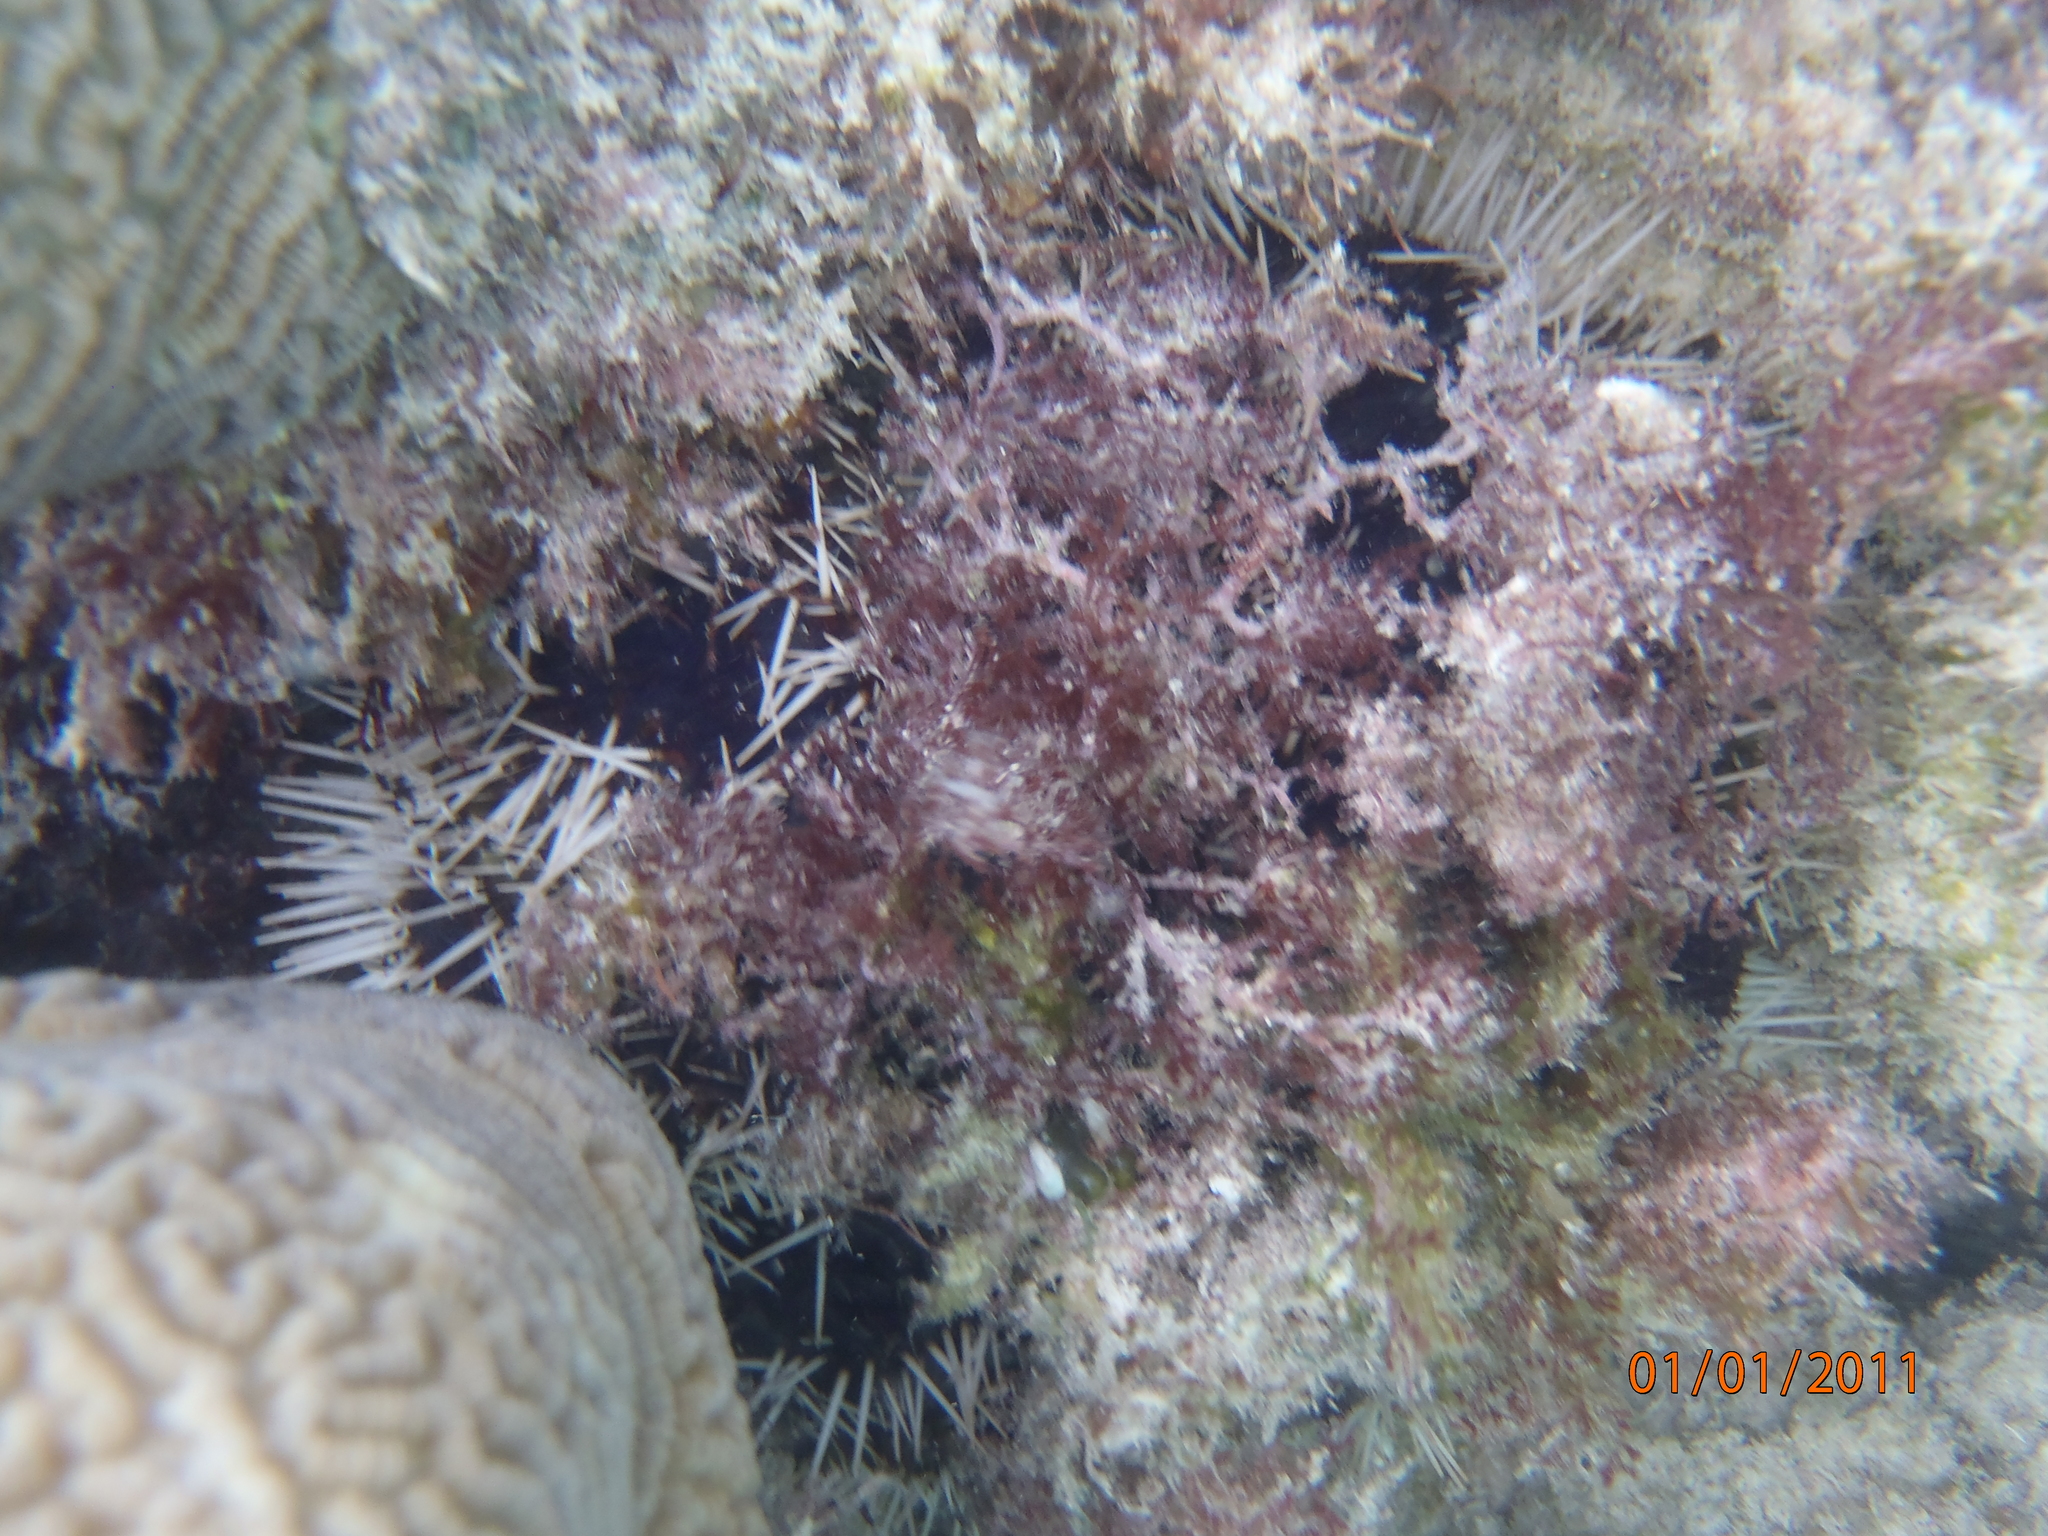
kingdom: Animalia
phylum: Echinodermata
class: Echinoidea
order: Camarodonta
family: Toxopneustidae
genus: Tripneustes
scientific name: Tripneustes gratilla
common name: Bischofsmützenseeigel
